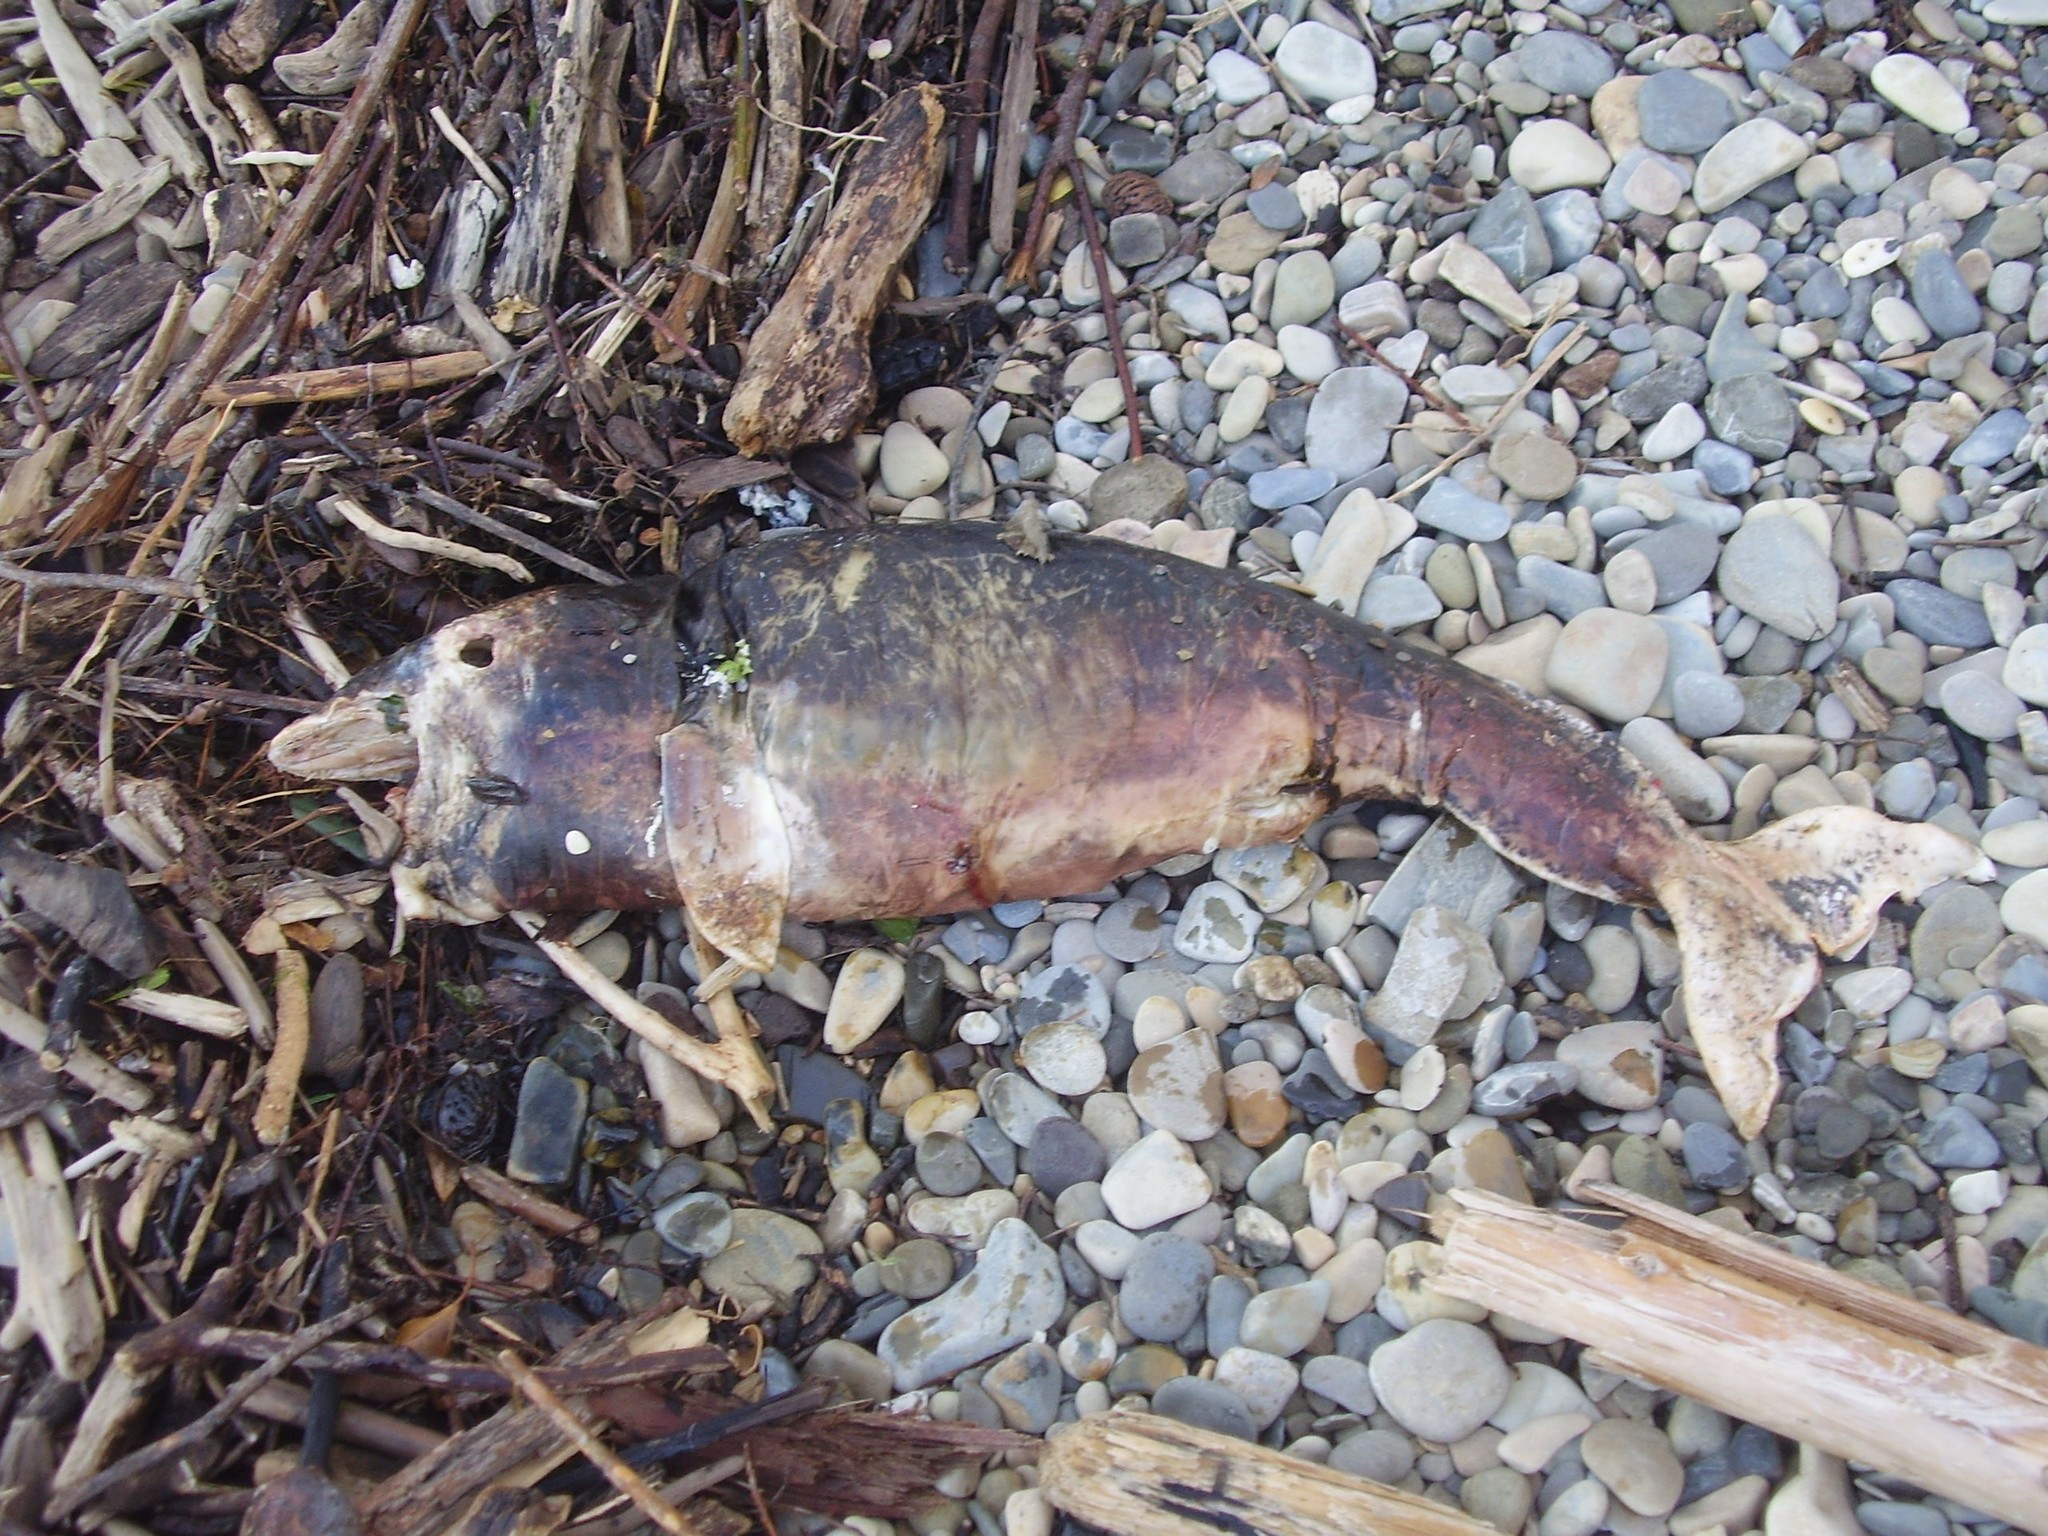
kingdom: Animalia
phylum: Chordata
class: Mammalia
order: Cetacea
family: Phocoenidae
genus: Phocoena
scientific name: Phocoena phocoena
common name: Harbor porpoise
